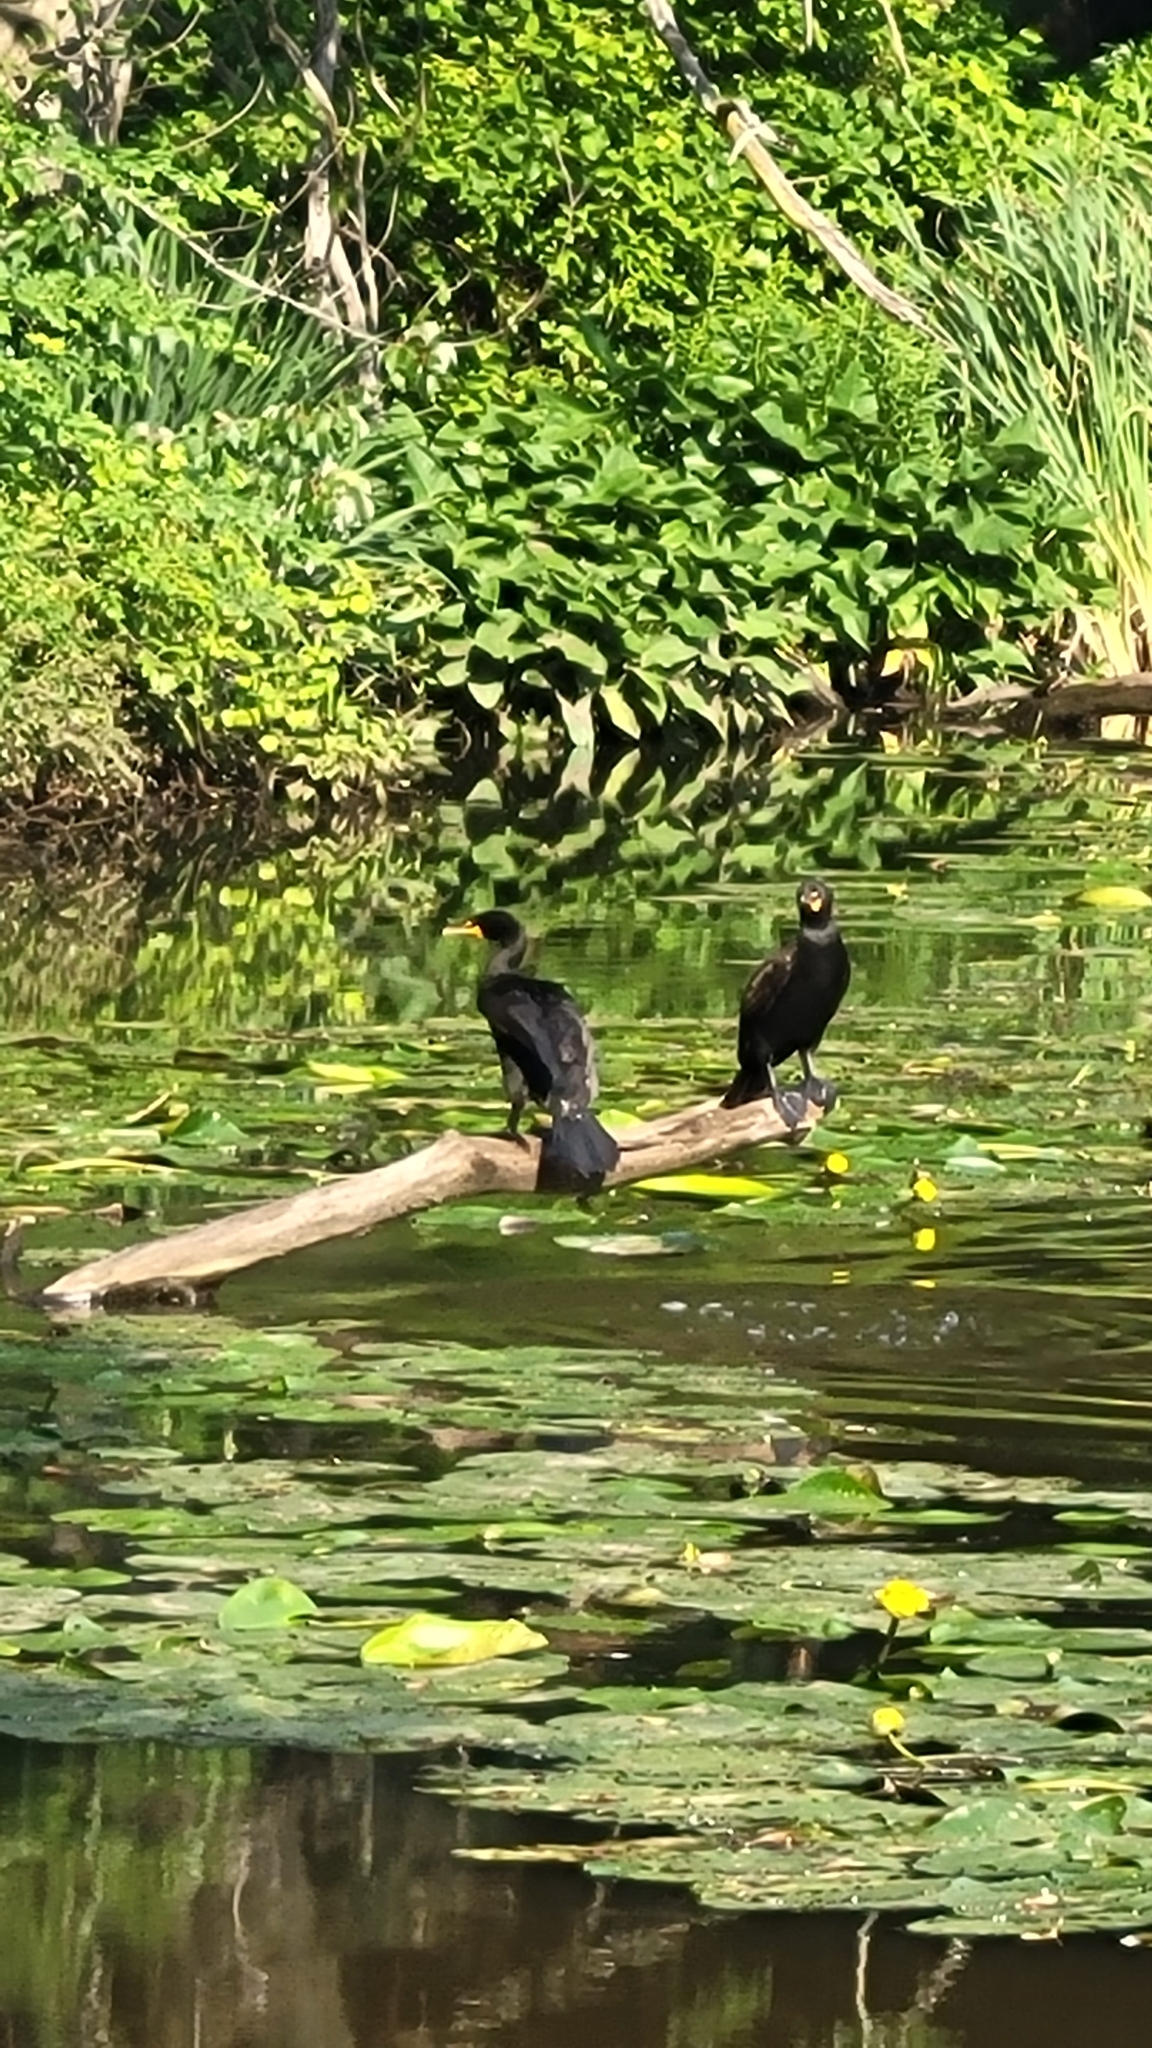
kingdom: Animalia
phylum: Chordata
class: Aves
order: Suliformes
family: Phalacrocoracidae
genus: Phalacrocorax
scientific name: Phalacrocorax auritus
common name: Double-crested cormorant
